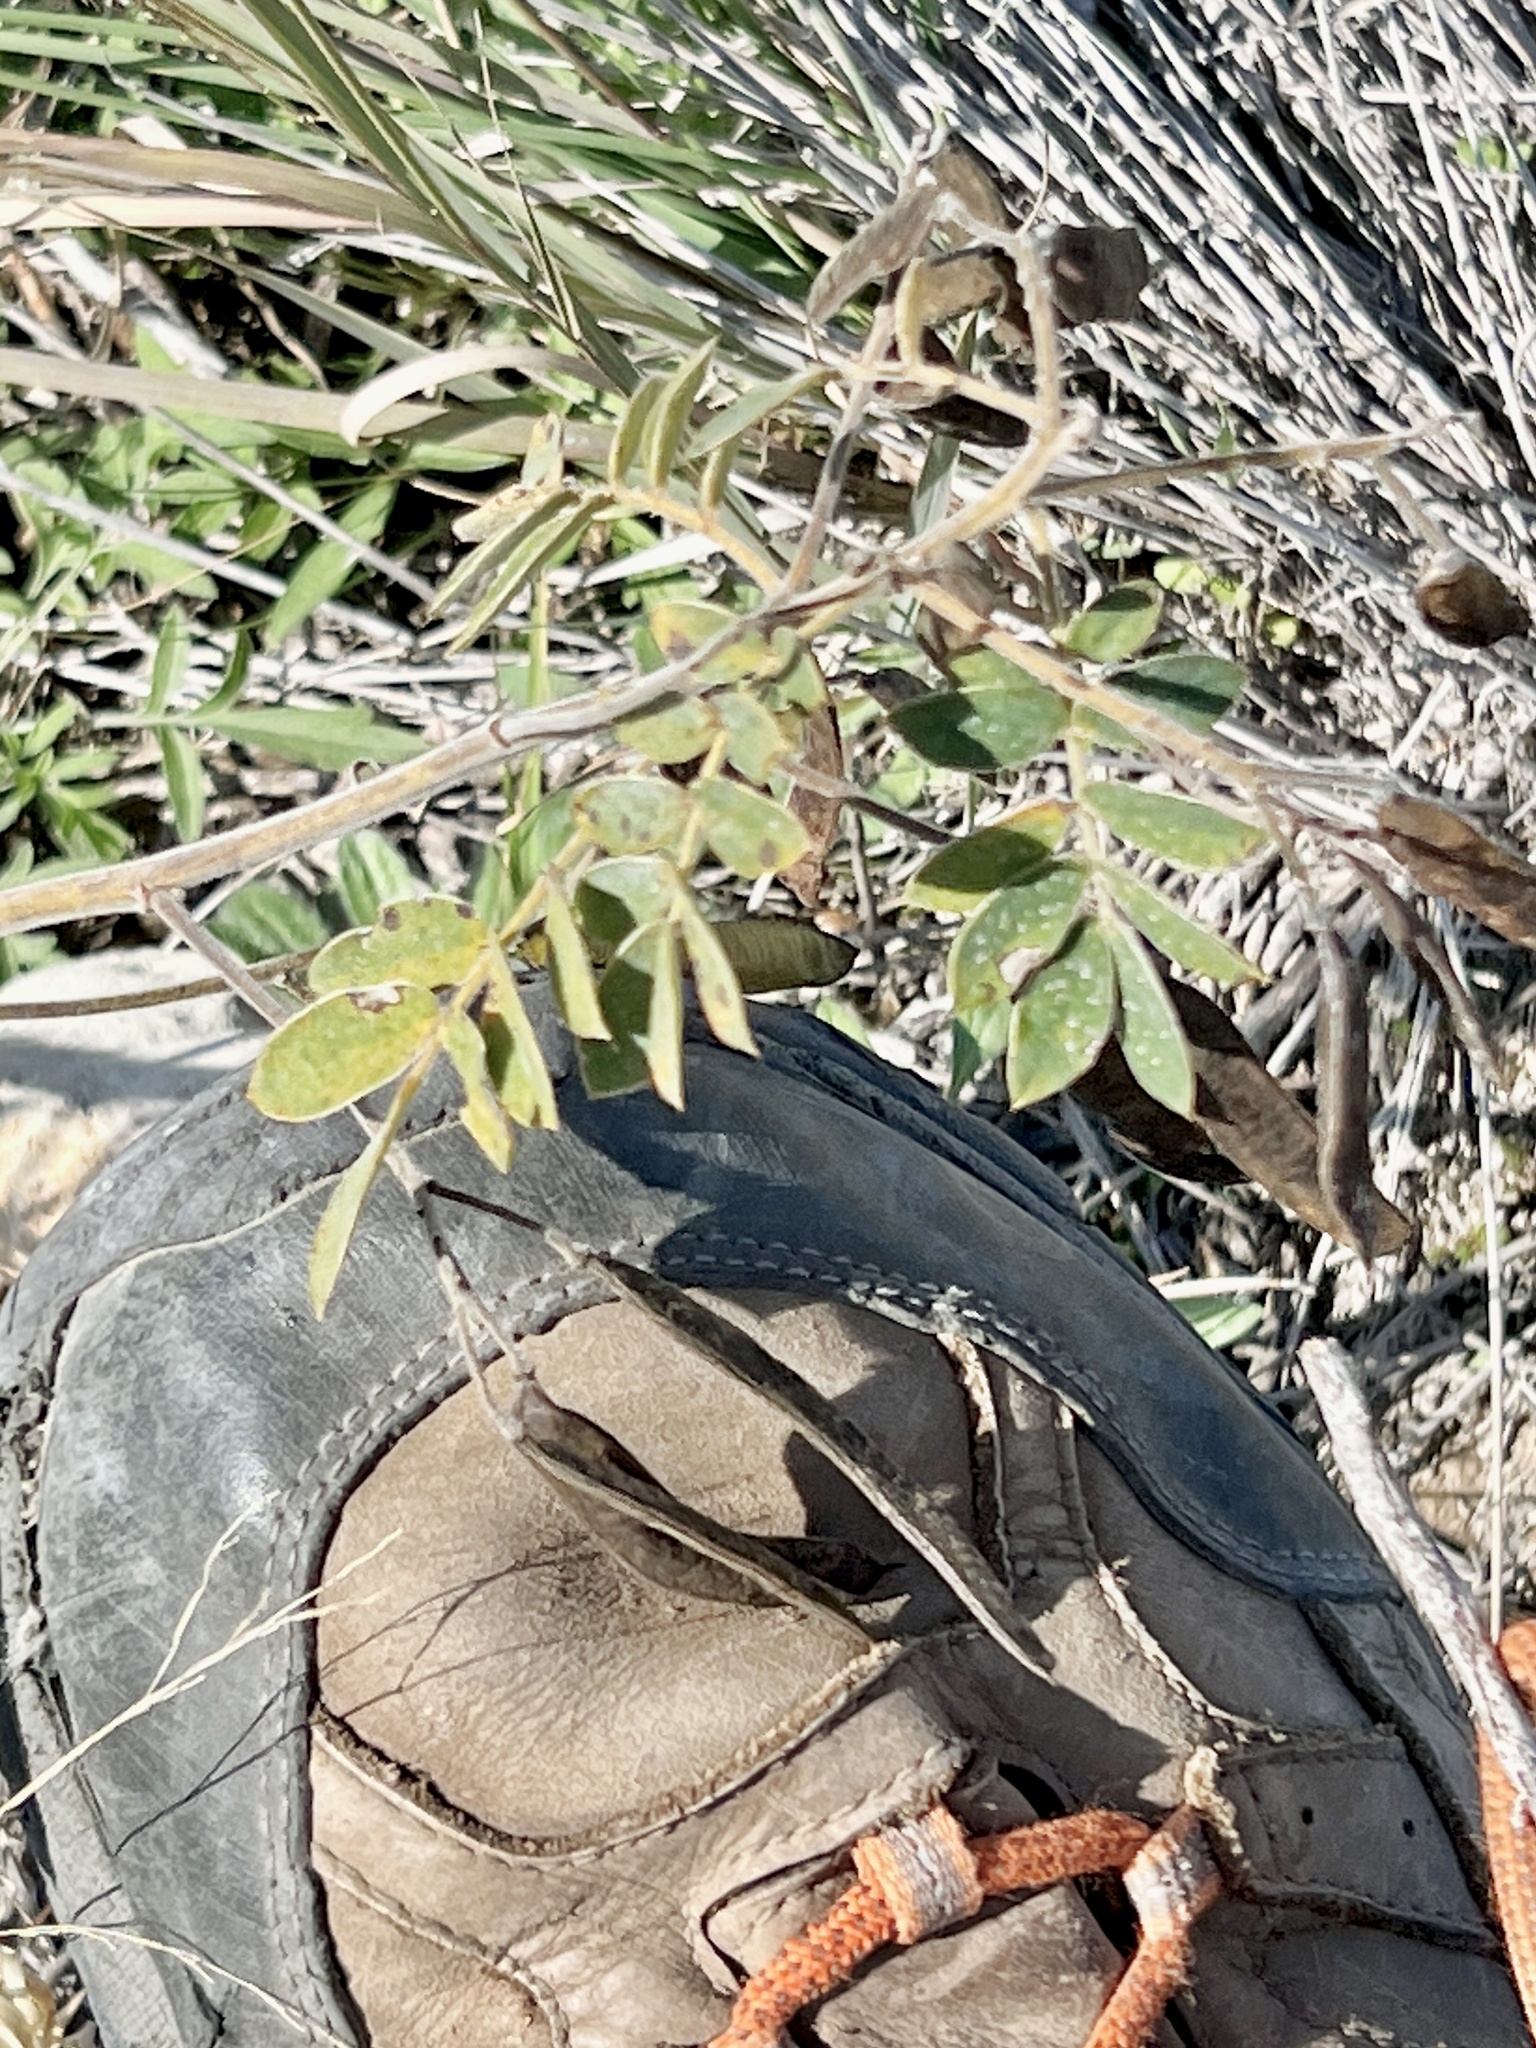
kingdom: Plantae
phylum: Tracheophyta
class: Magnoliopsida
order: Fabales
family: Fabaceae
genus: Senna
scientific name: Senna lindheimeriana
